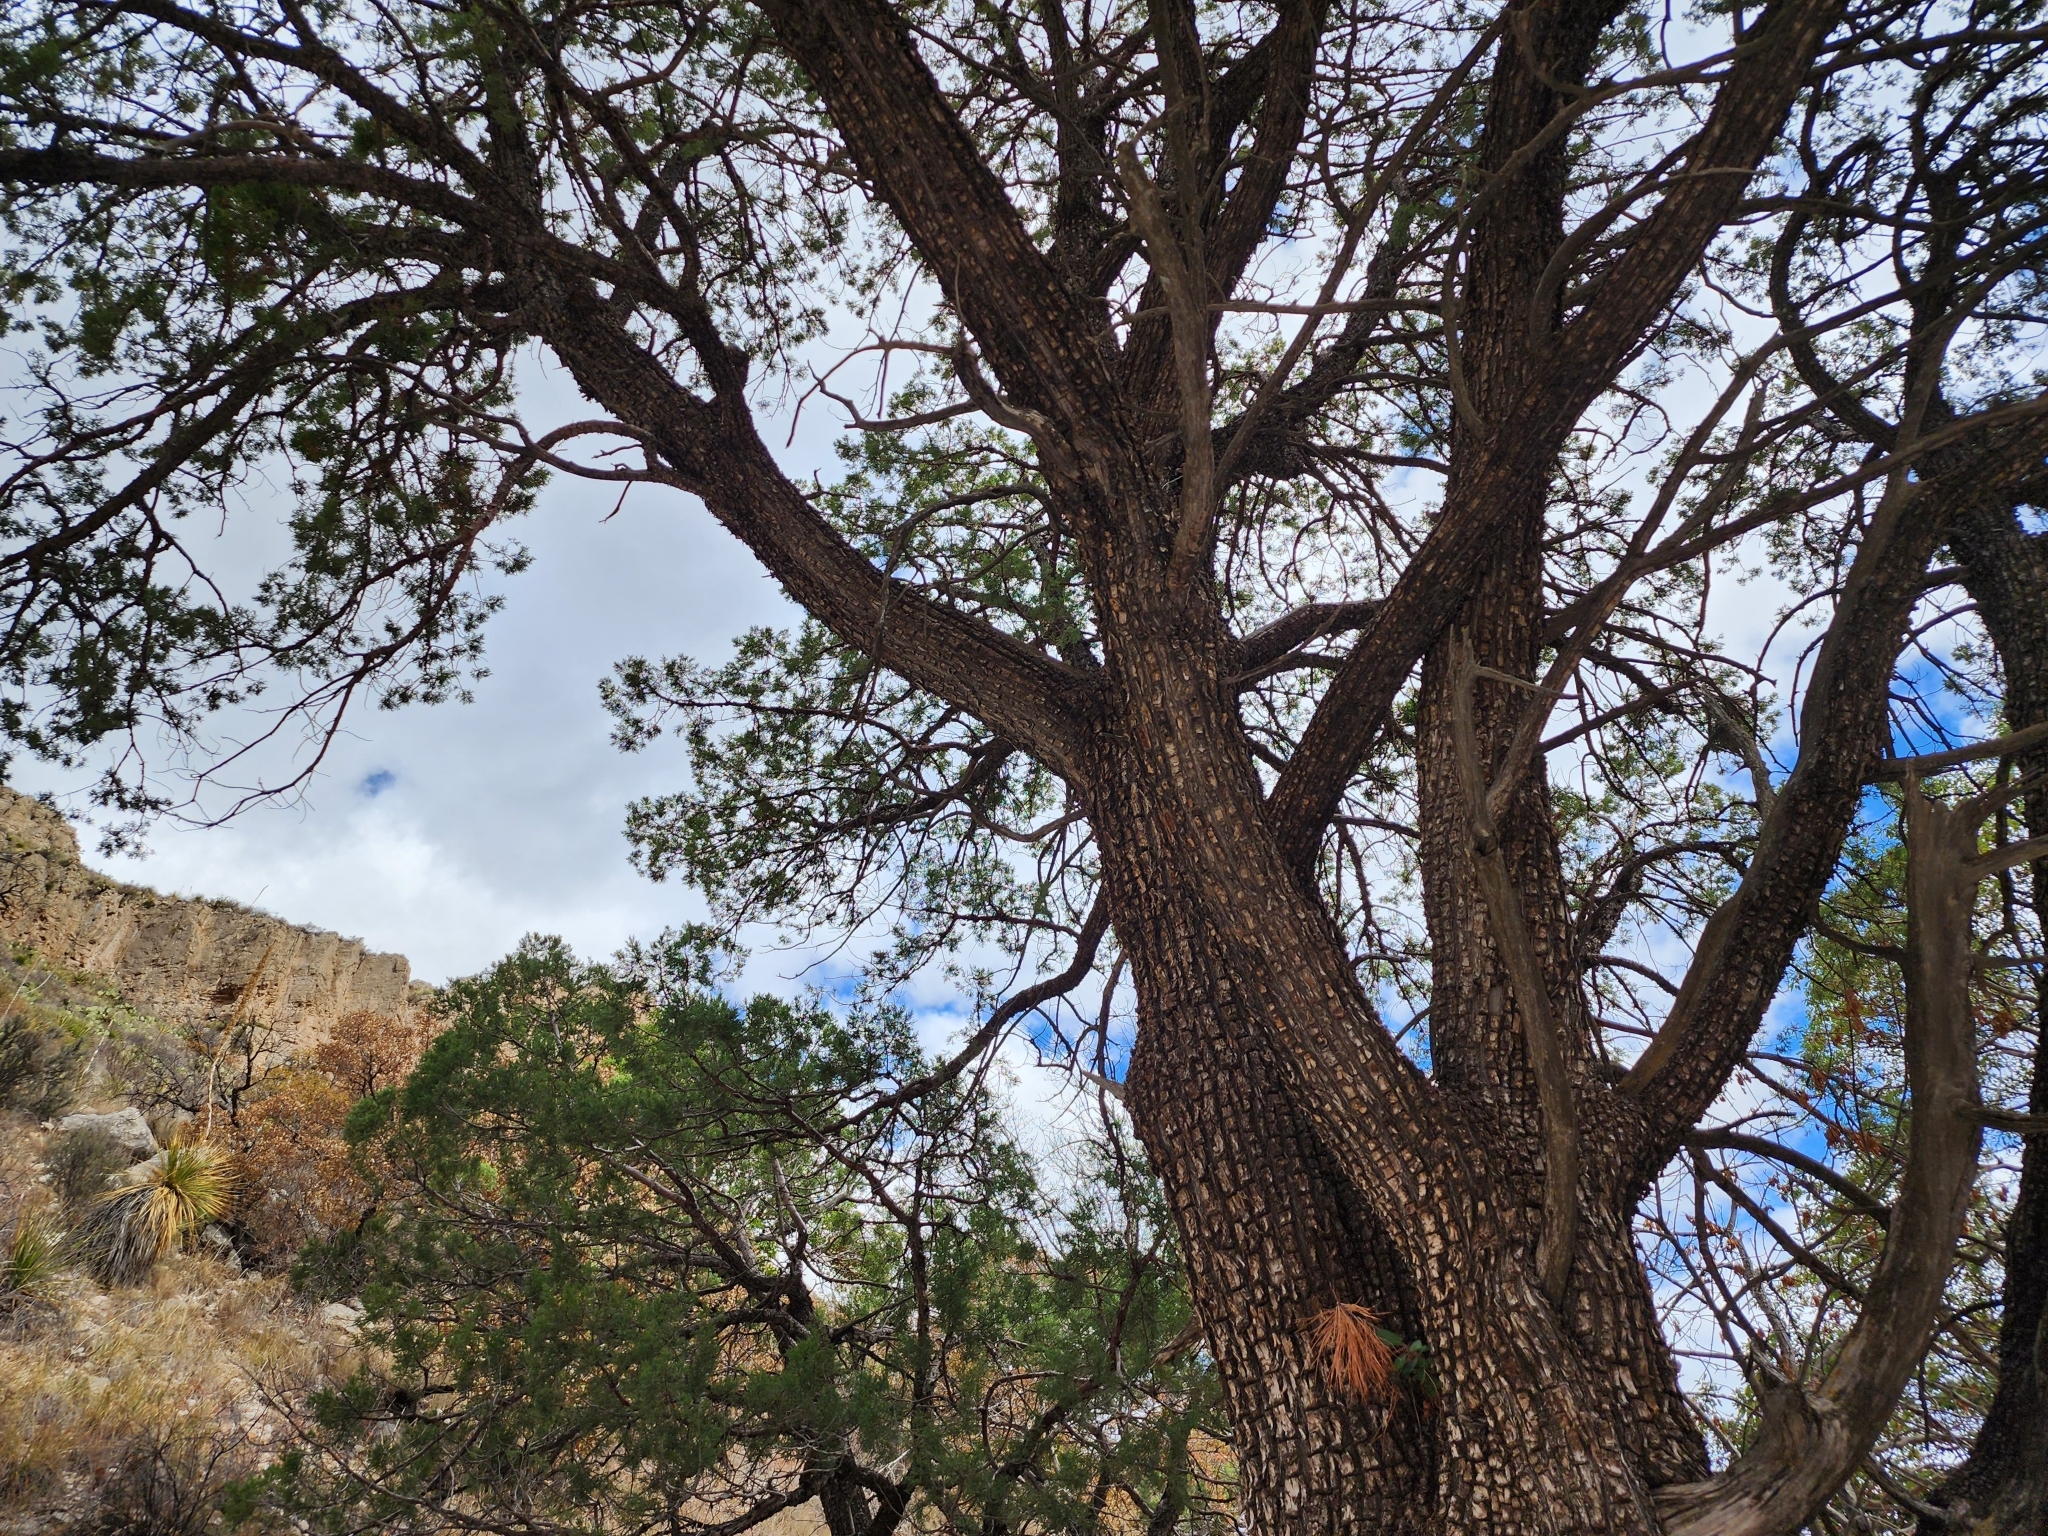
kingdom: Plantae
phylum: Tracheophyta
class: Pinopsida
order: Pinales
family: Cupressaceae
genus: Juniperus
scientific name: Juniperus deppeana
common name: Alligator juniper
